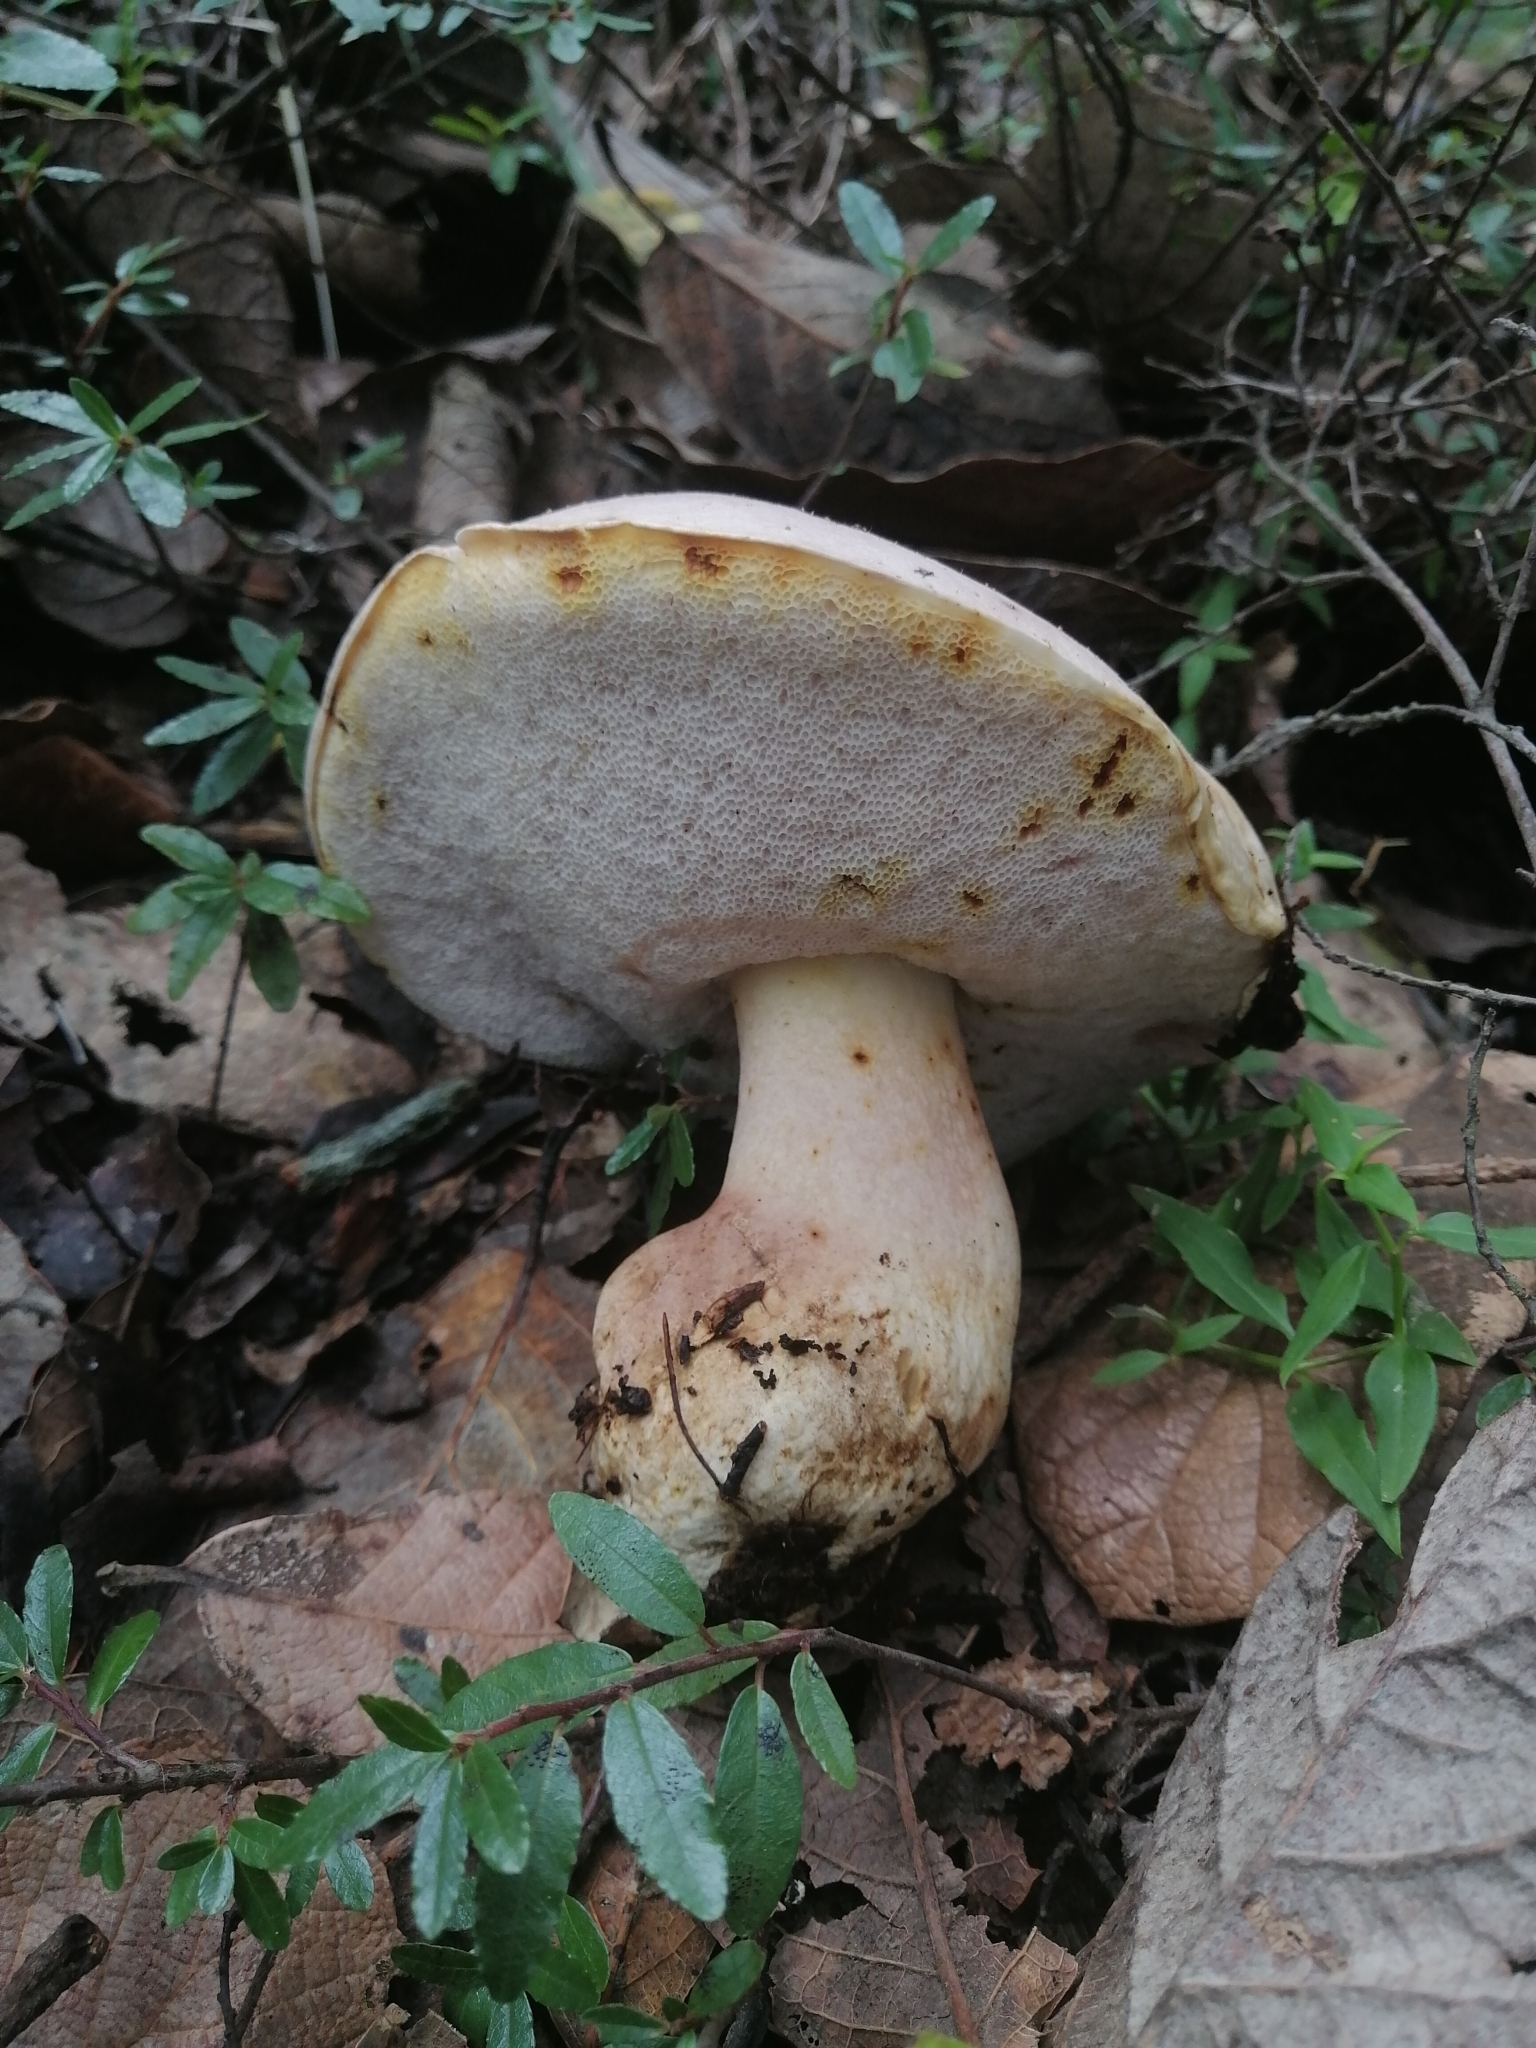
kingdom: Fungi
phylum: Basidiomycota
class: Agaricomycetes
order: Boletales
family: Boletaceae
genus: Tylopilus
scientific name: Tylopilus rubrobrunneus
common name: Reddish brown bitter bolete
